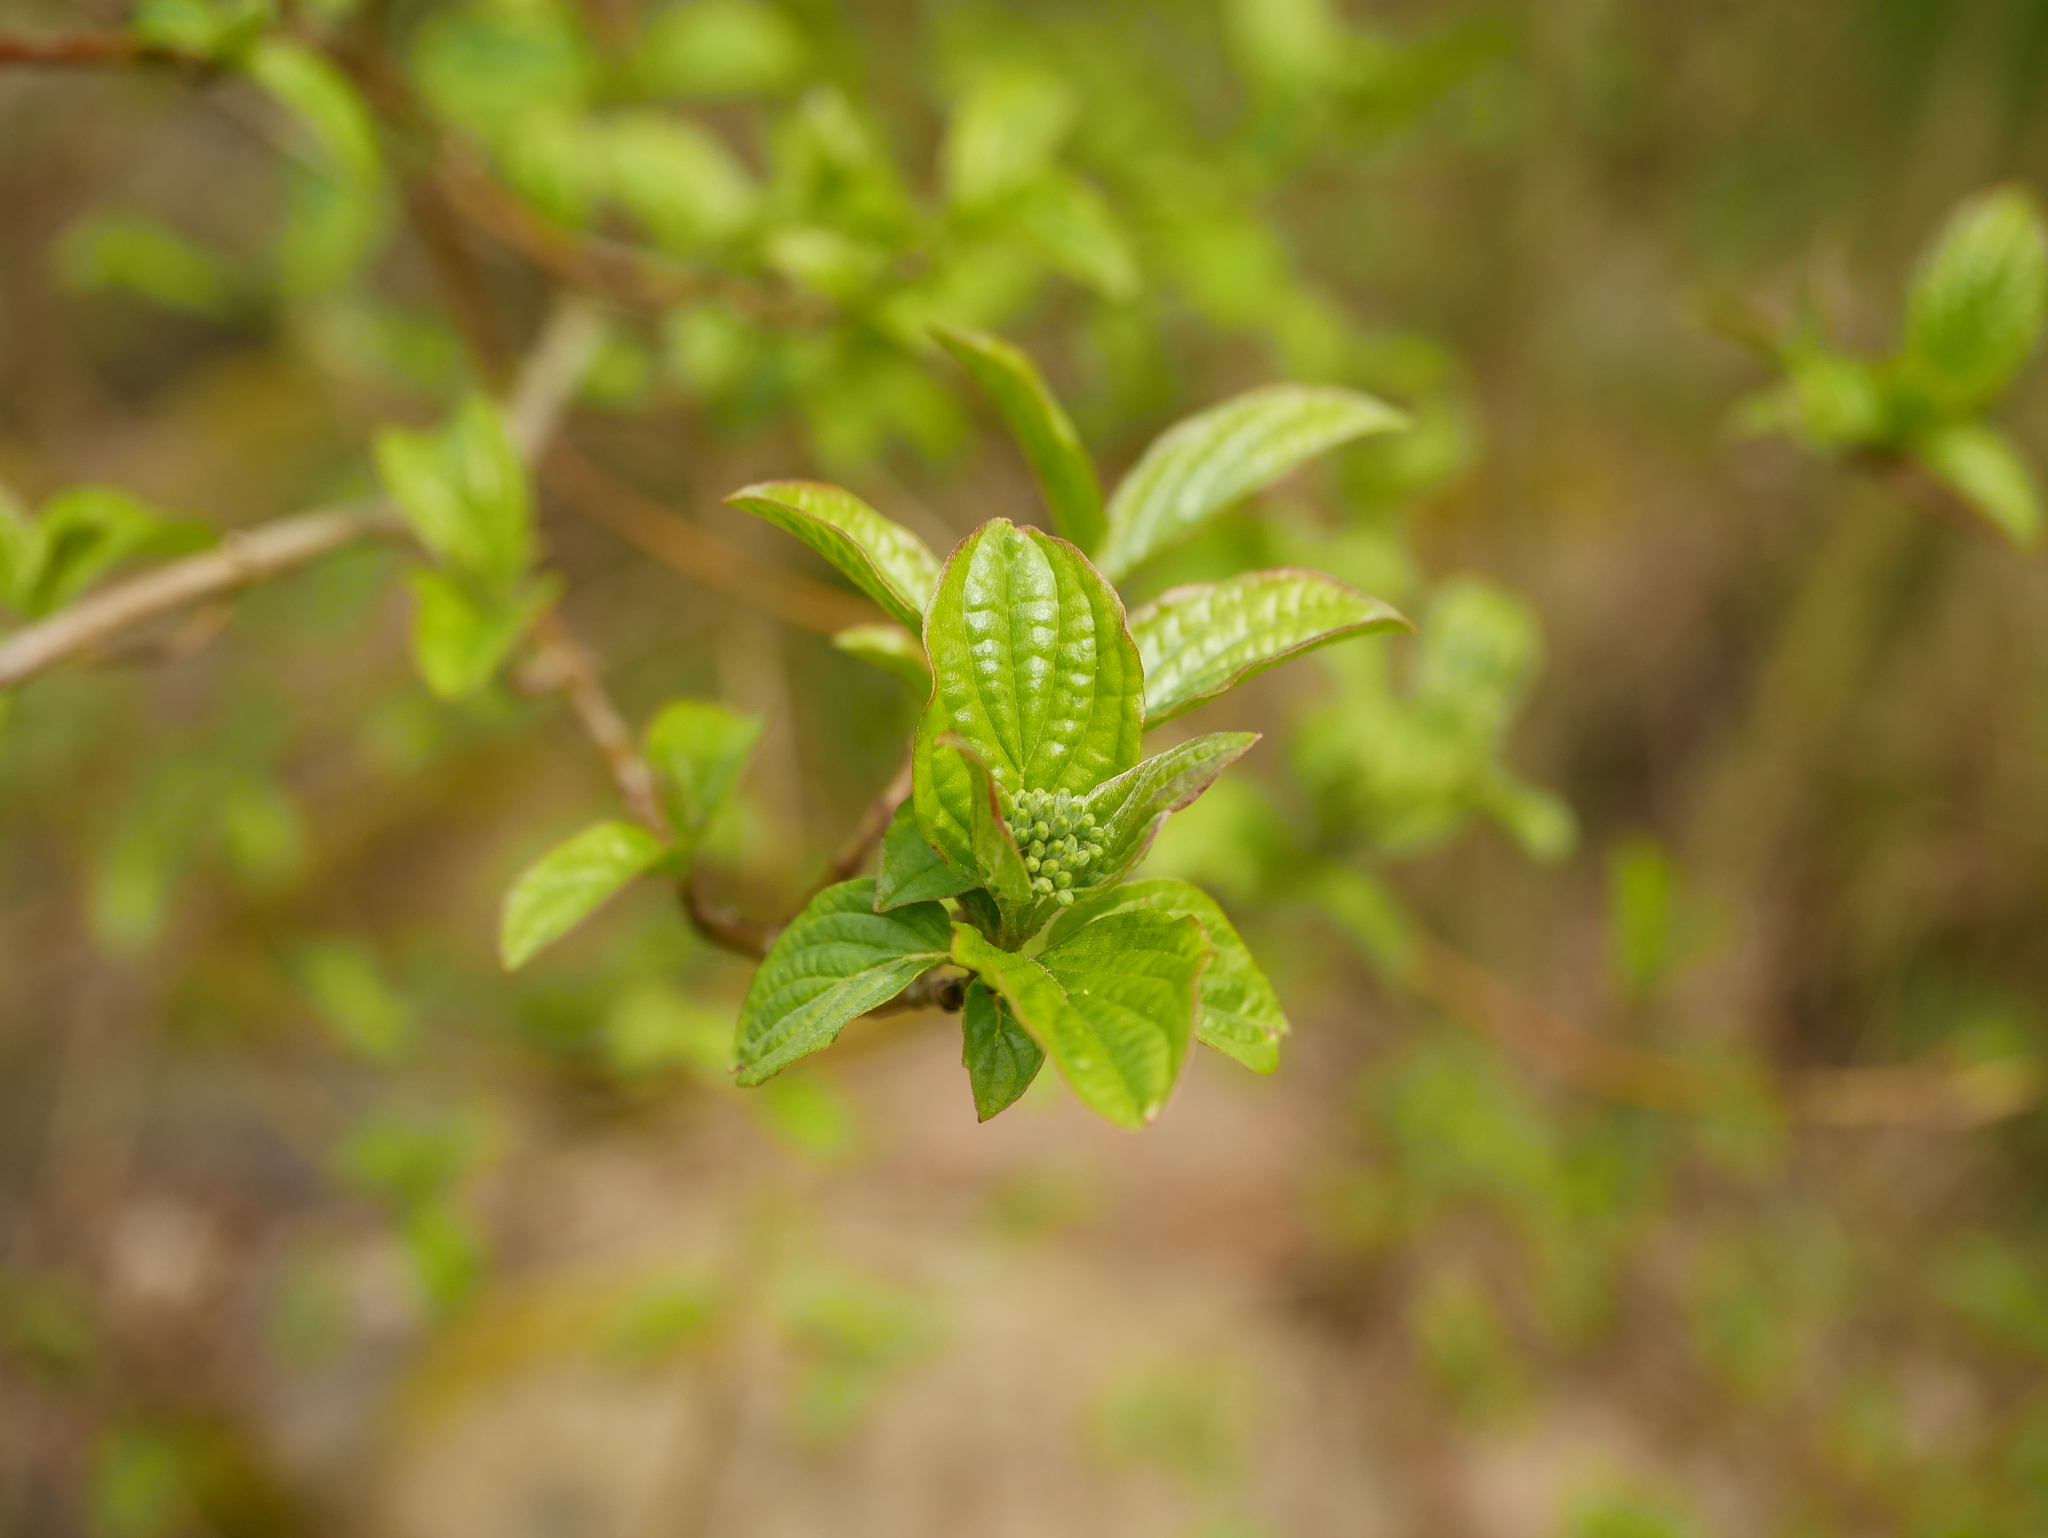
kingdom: Plantae
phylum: Tracheophyta
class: Magnoliopsida
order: Cornales
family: Cornaceae
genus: Cornus
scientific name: Cornus sanguinea
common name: Dogwood
